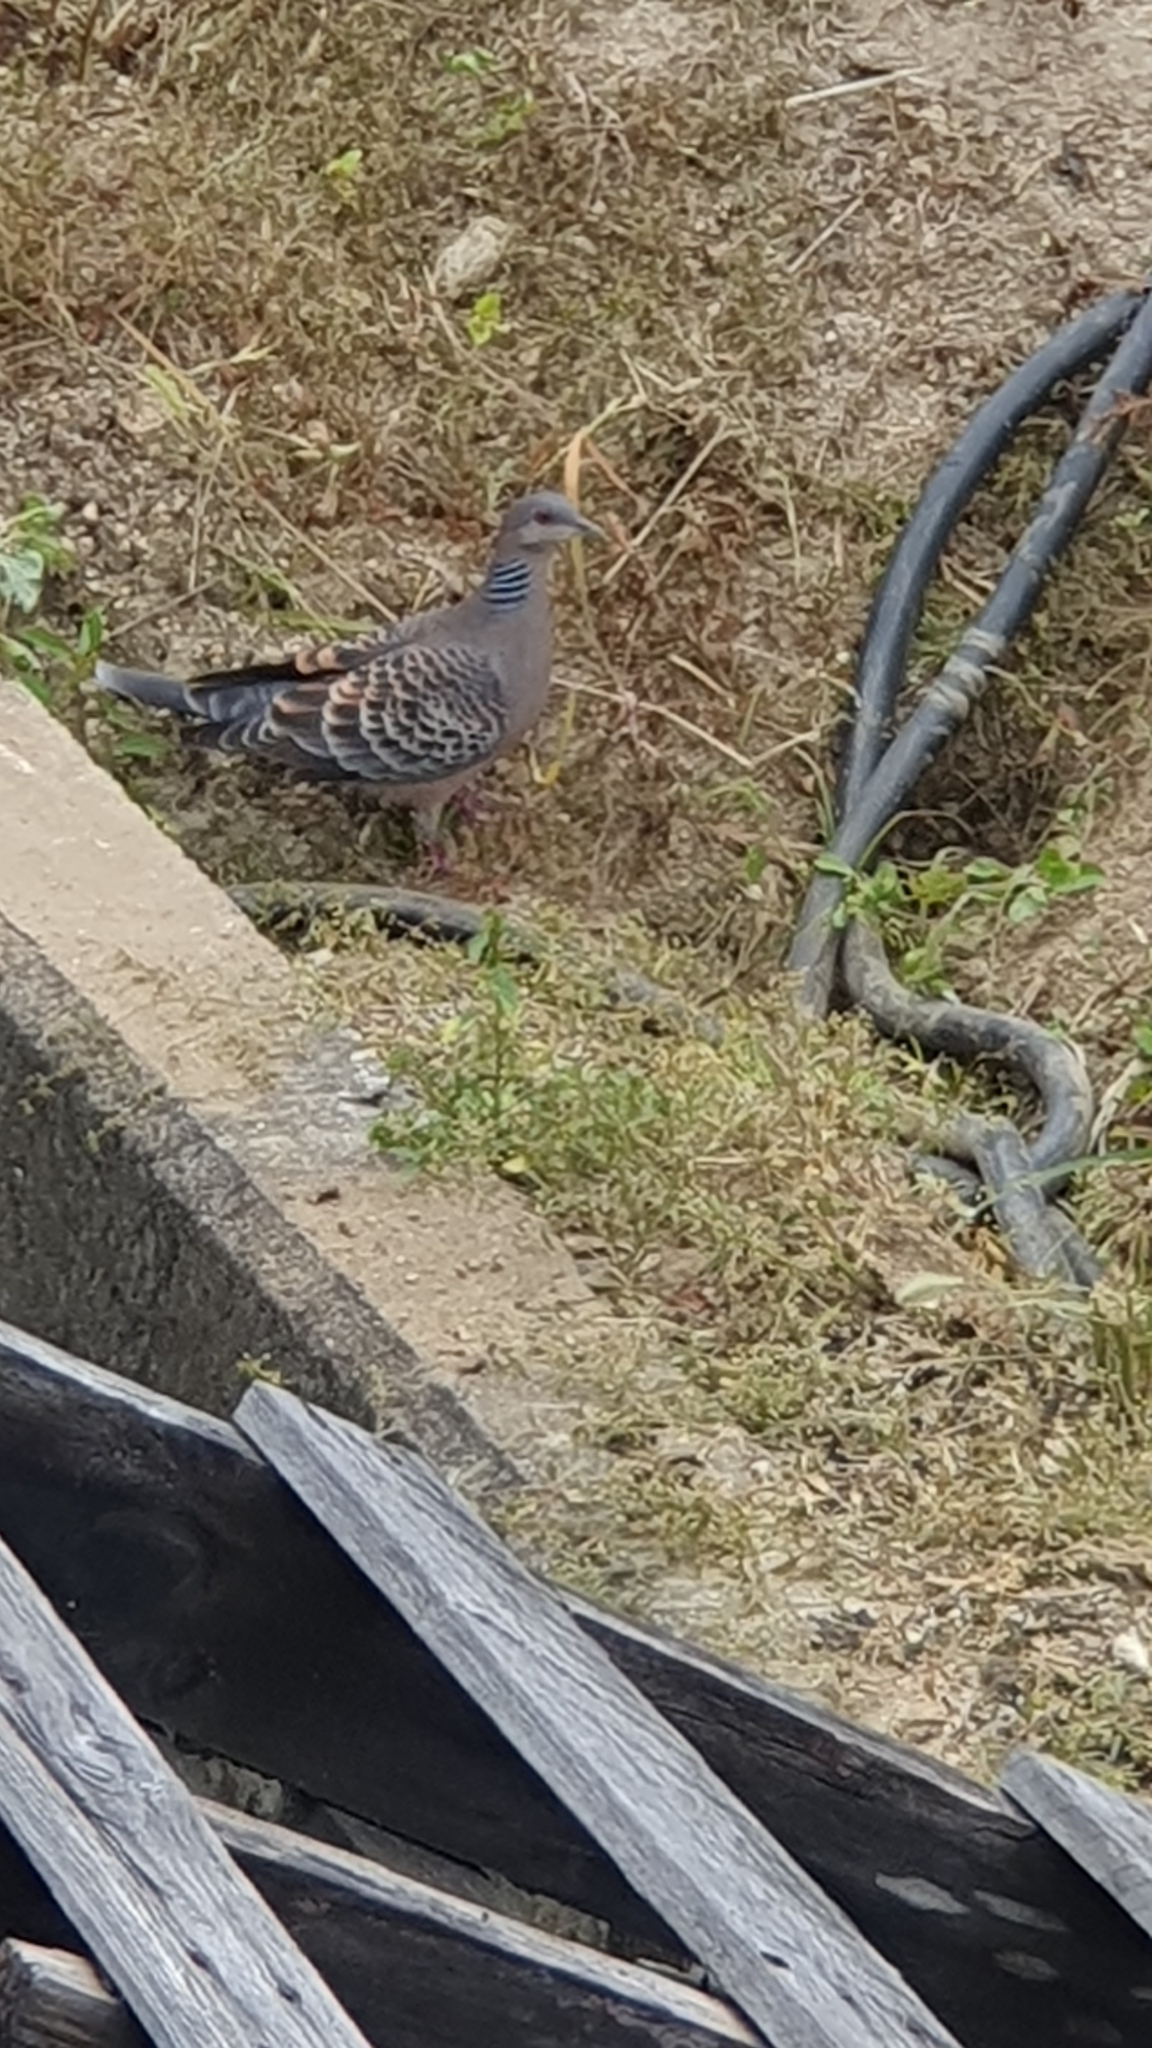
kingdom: Animalia
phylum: Chordata
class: Aves
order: Columbiformes
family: Columbidae
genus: Streptopelia
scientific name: Streptopelia orientalis
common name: Oriental turtle dove
